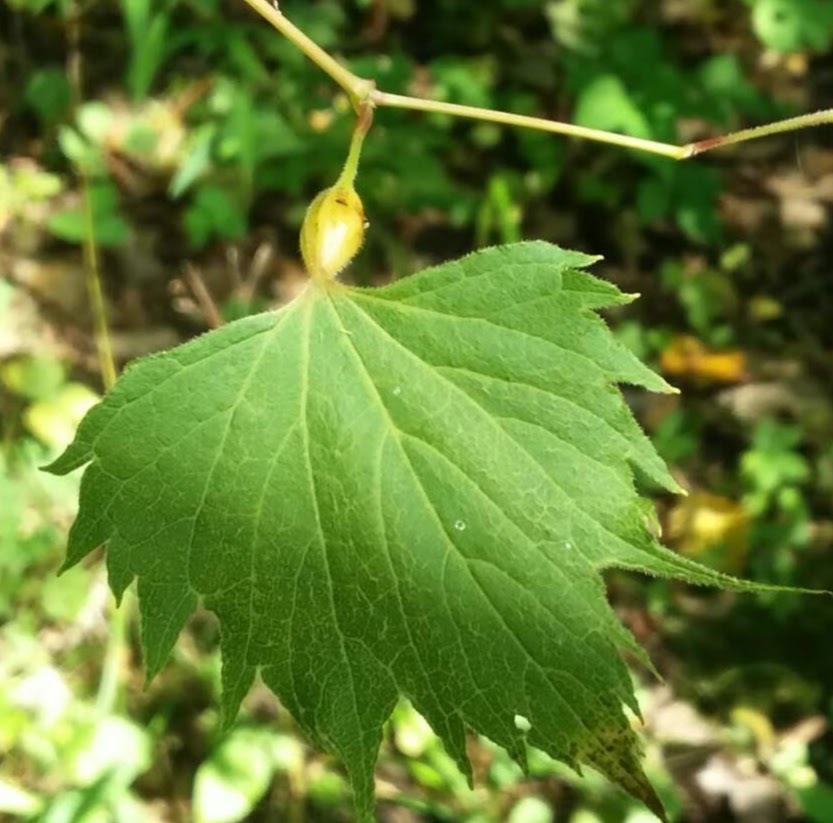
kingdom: Animalia
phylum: Arthropoda
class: Insecta
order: Diptera
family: Cecidomyiidae
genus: Neolasioptera
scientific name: Neolasioptera vitinea
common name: Grape leaf petiole gall
